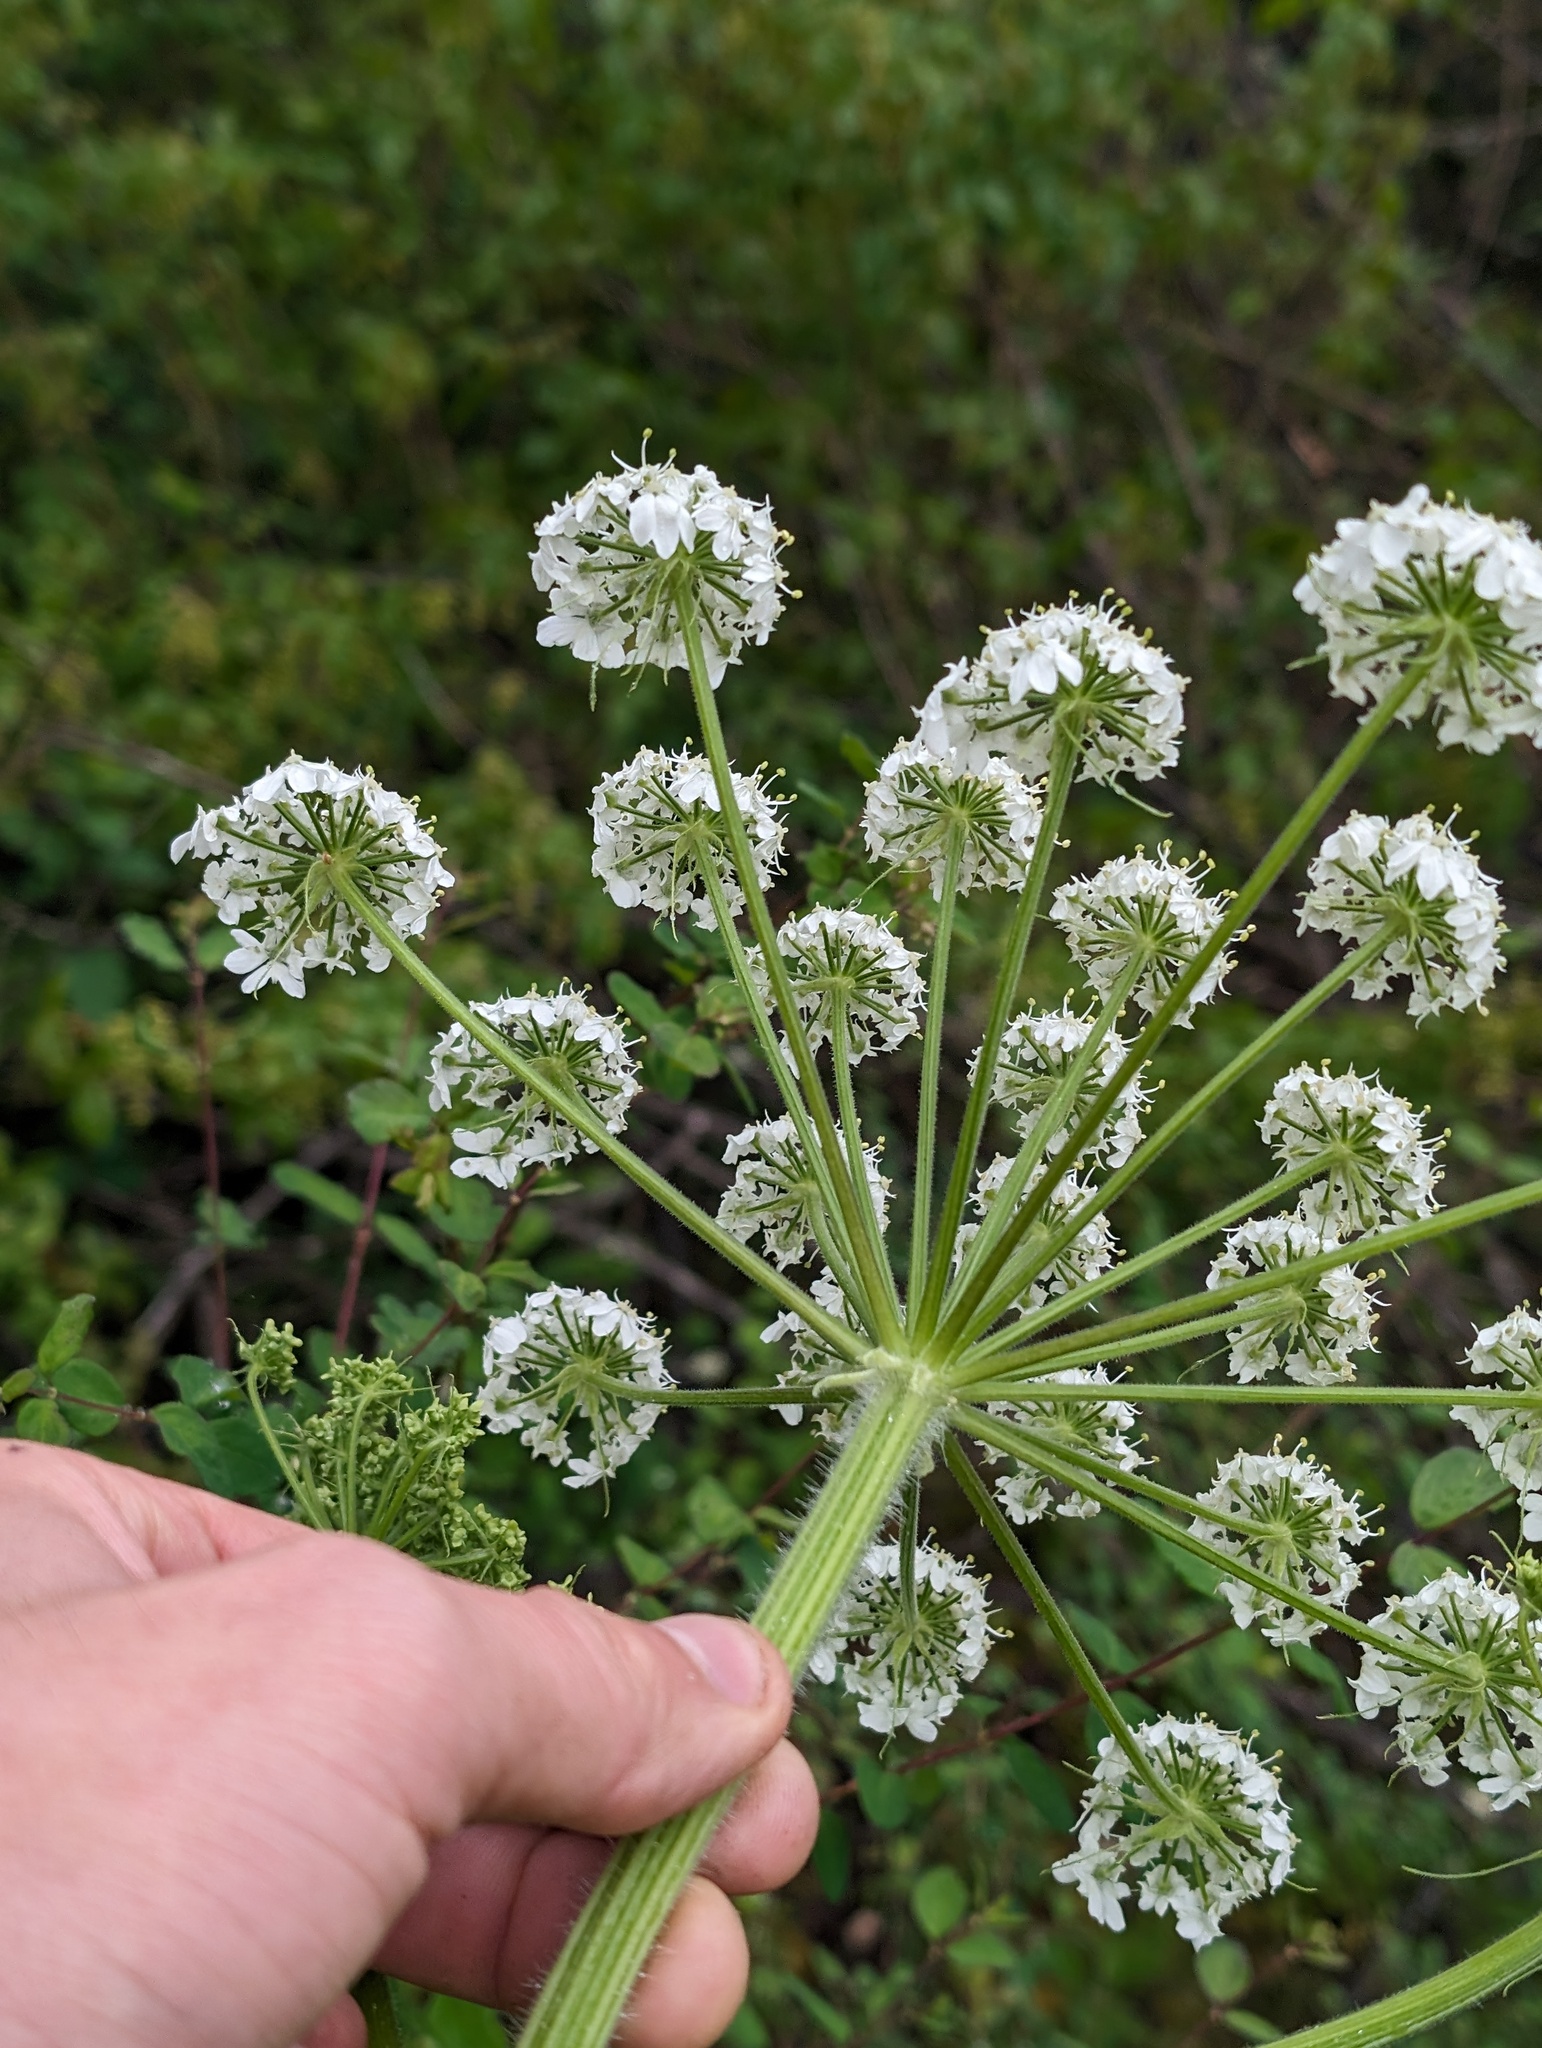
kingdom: Plantae
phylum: Tracheophyta
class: Magnoliopsida
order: Apiales
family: Apiaceae
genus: Heracleum
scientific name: Heracleum maximum
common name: American cow parsnip
